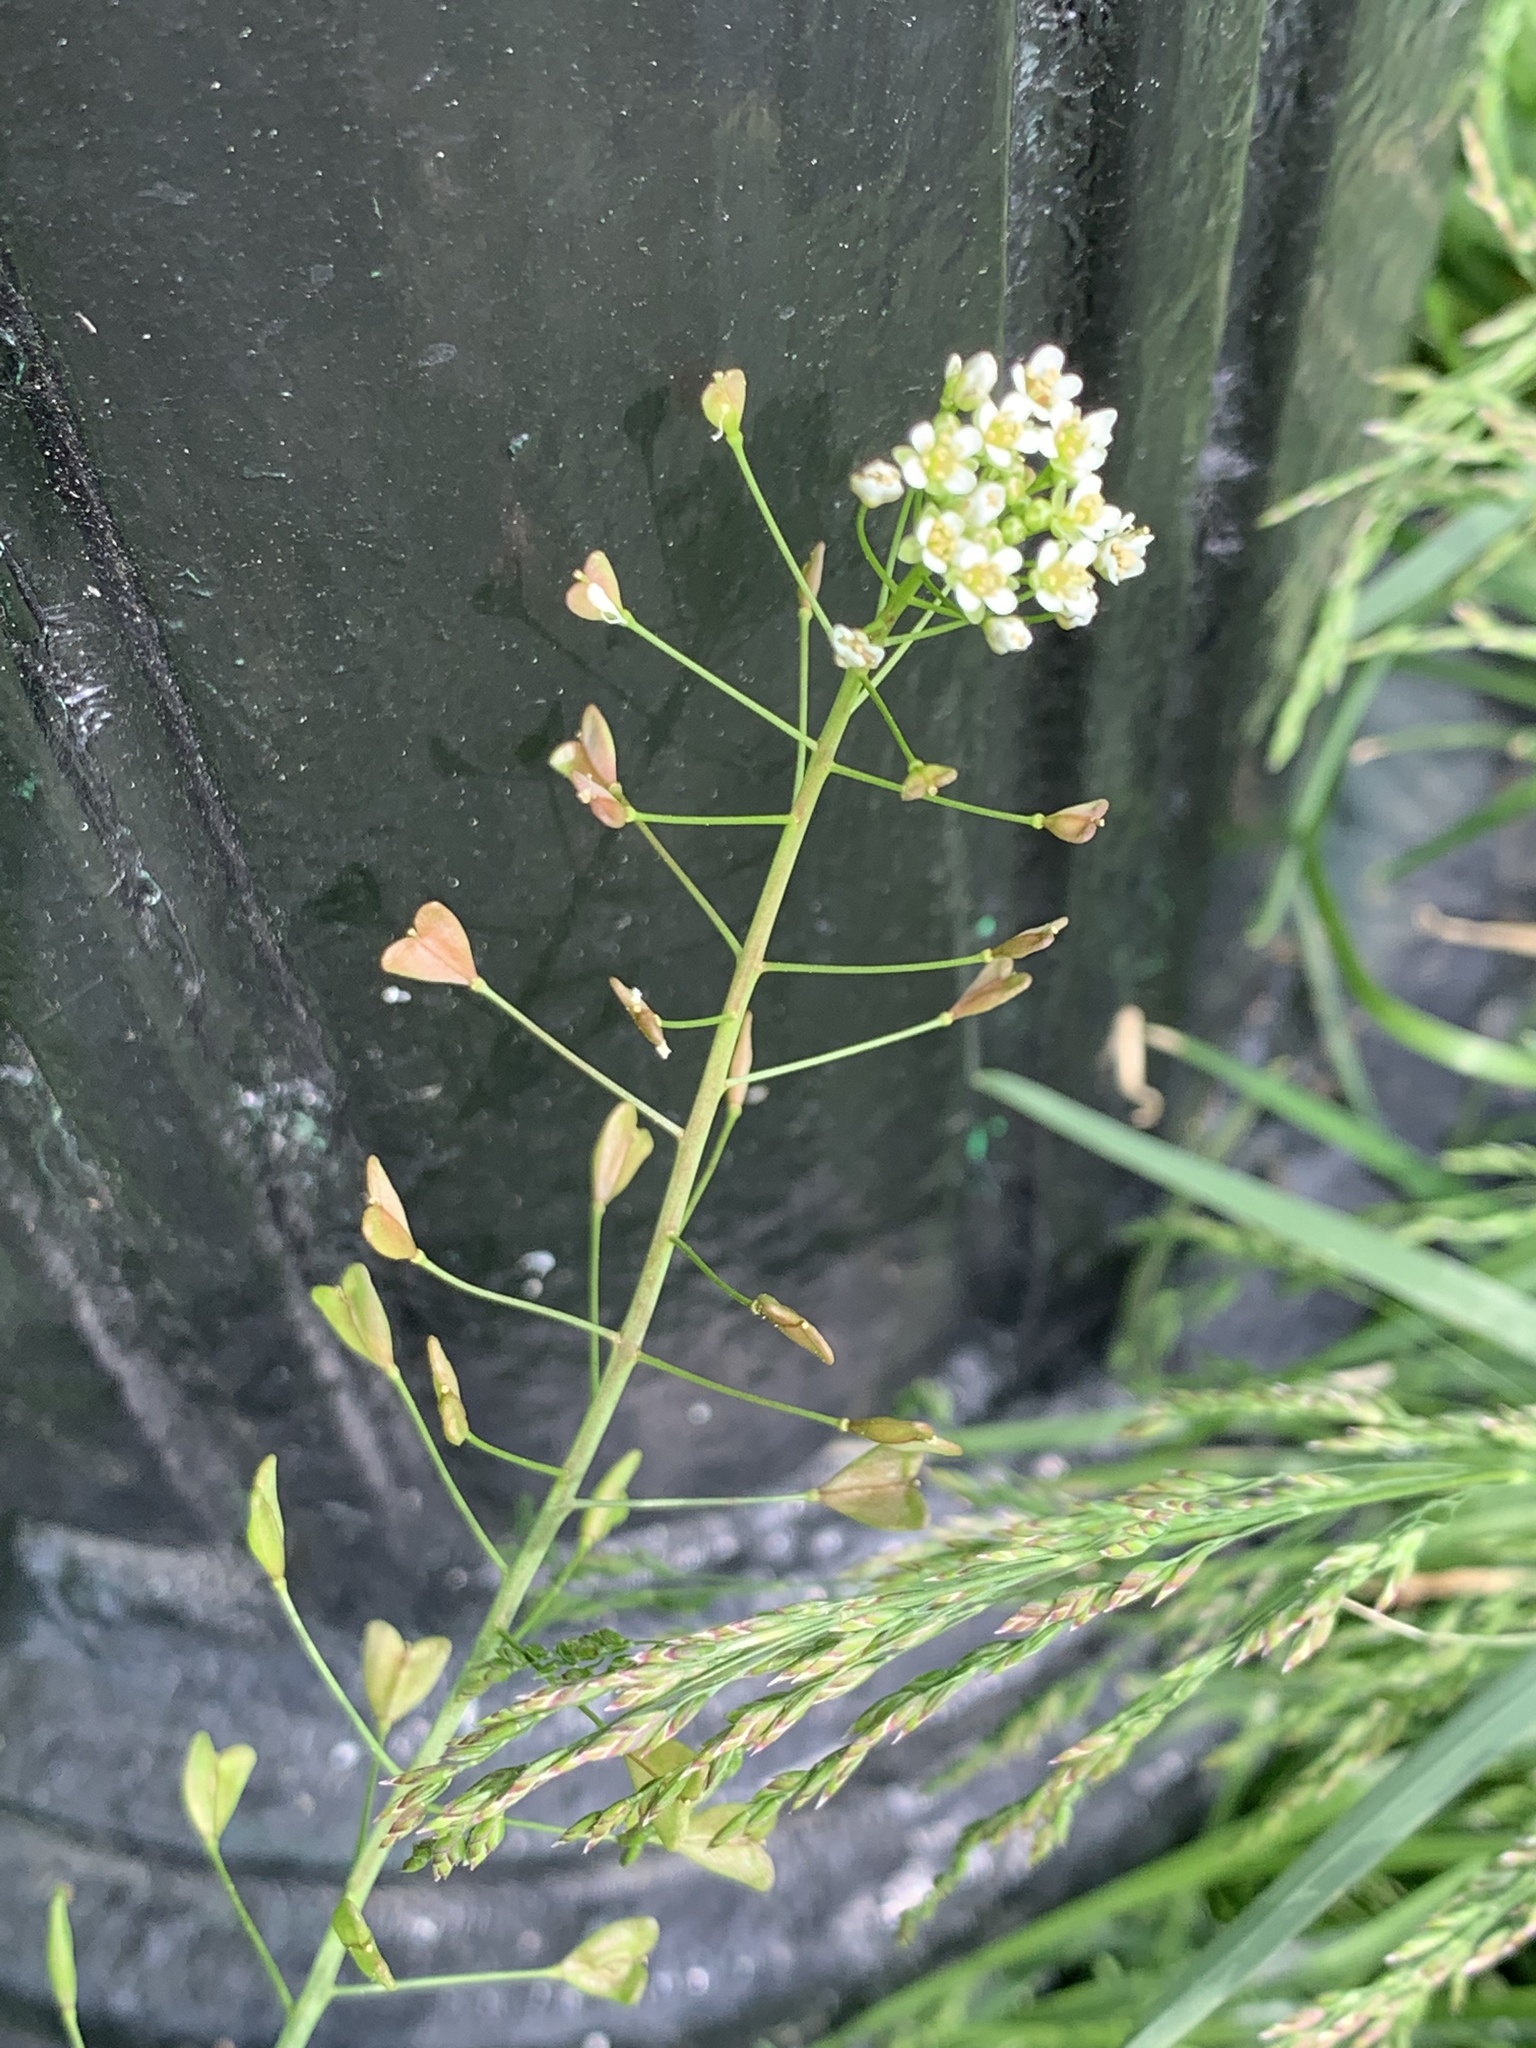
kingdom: Plantae
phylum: Tracheophyta
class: Magnoliopsida
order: Brassicales
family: Brassicaceae
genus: Capsella
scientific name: Capsella bursa-pastoris
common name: Shepherd's purse
